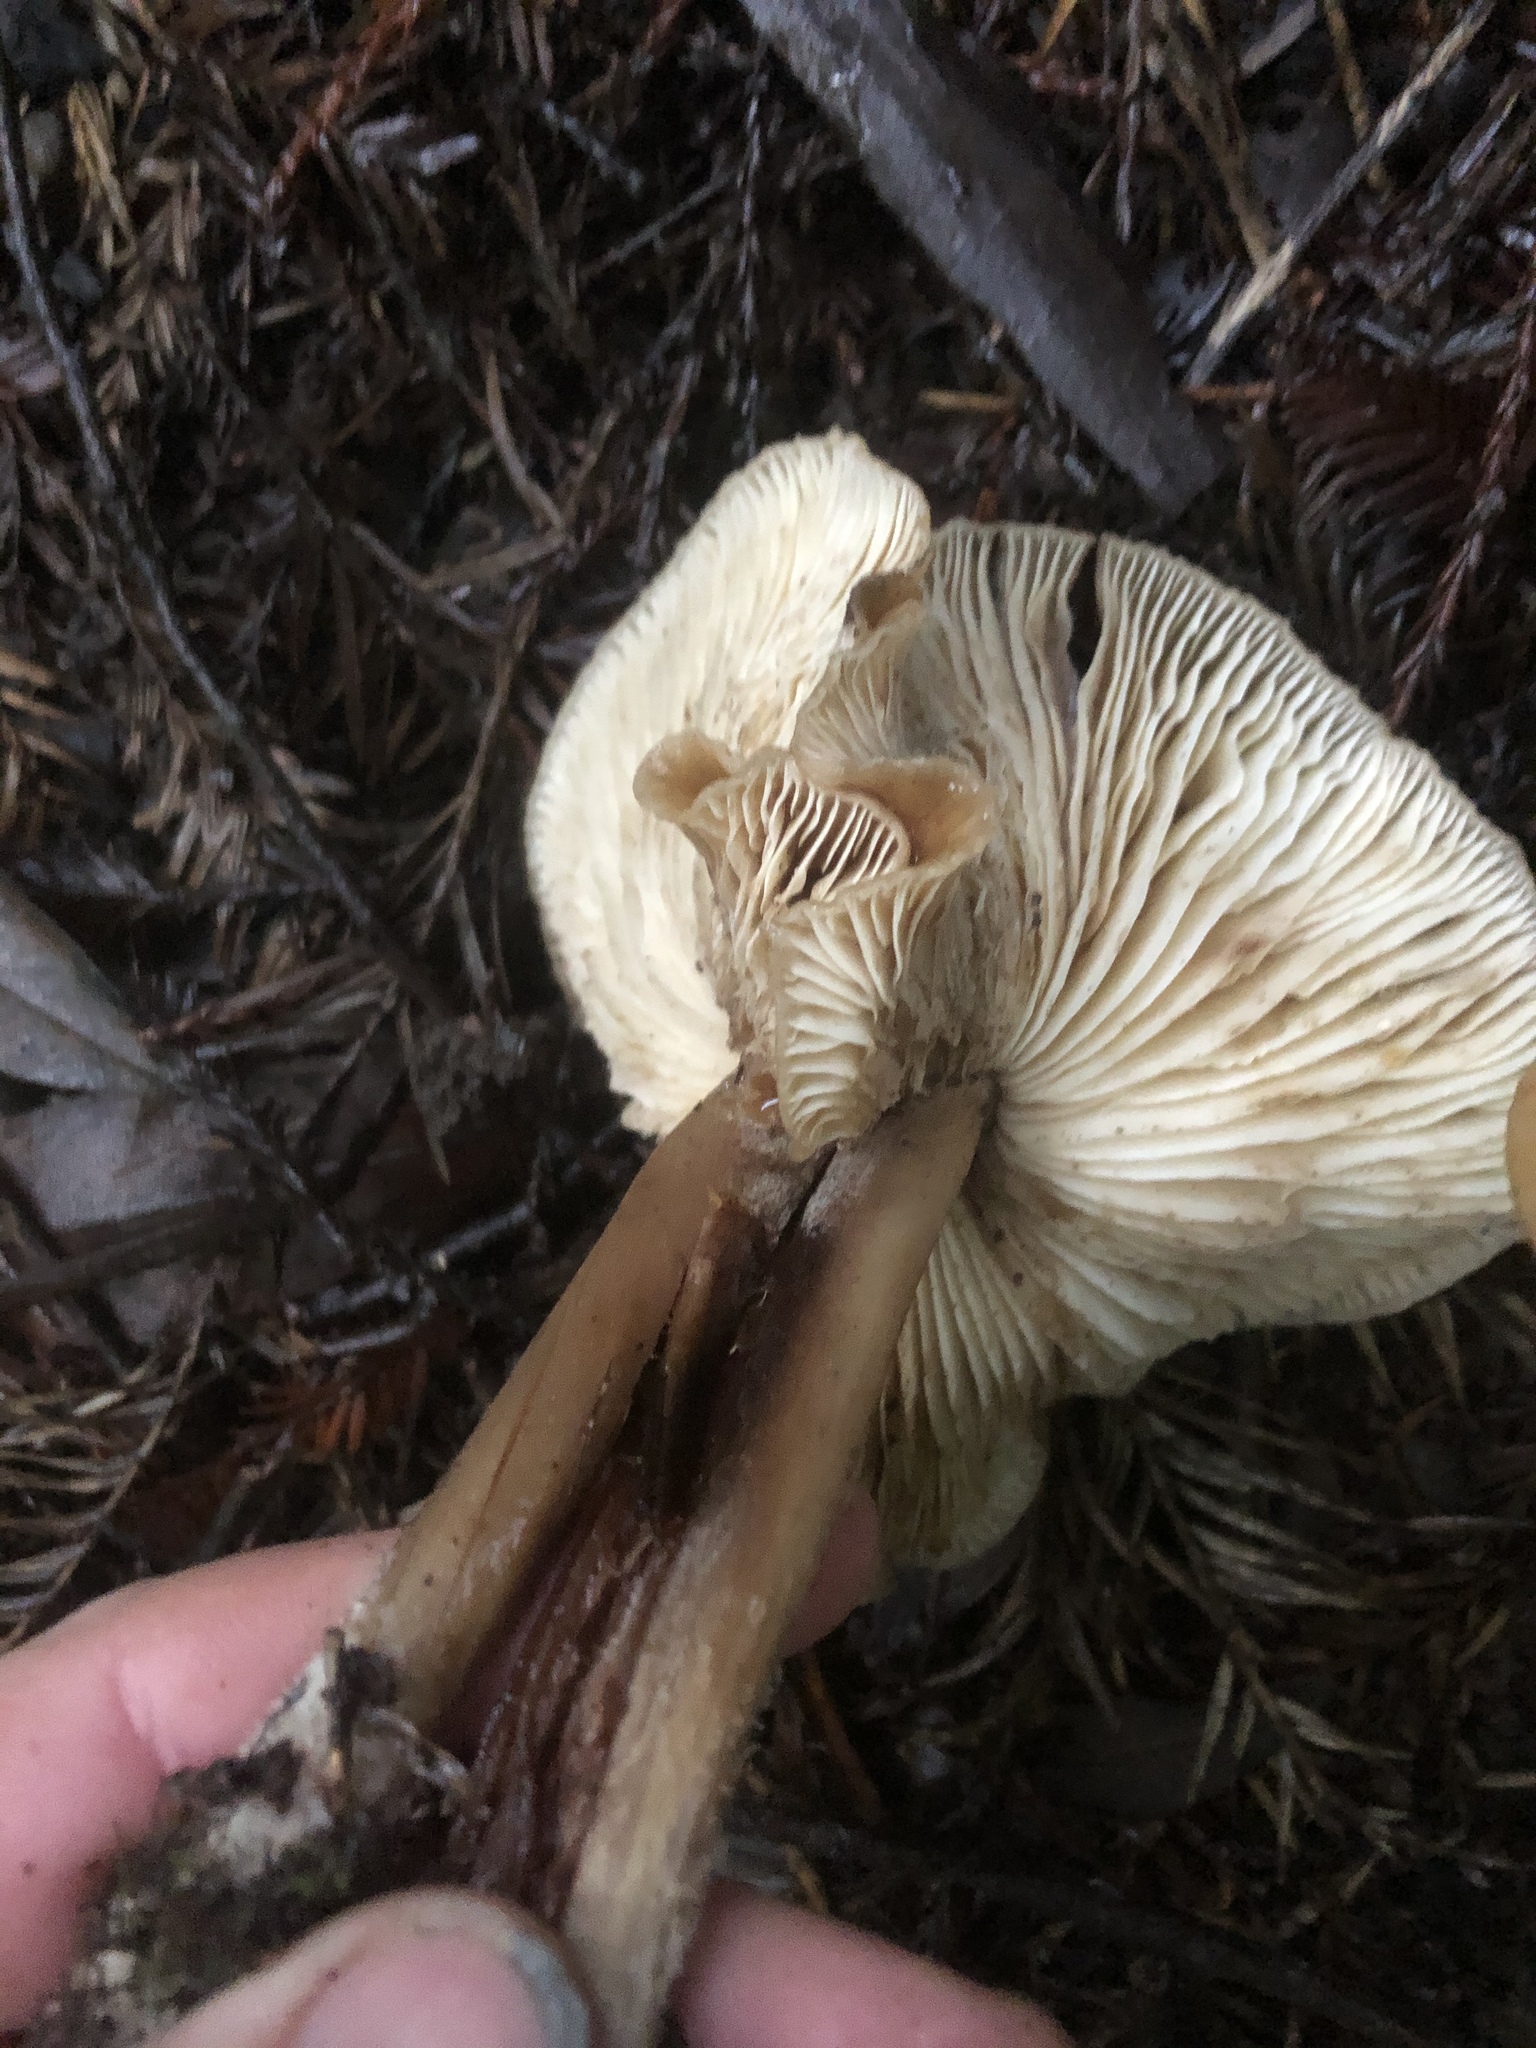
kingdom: Fungi
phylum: Basidiomycota
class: Agaricomycetes
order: Agaricales
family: Tricholomataceae
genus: Caulorhiza
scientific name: Caulorhiza umbonata
